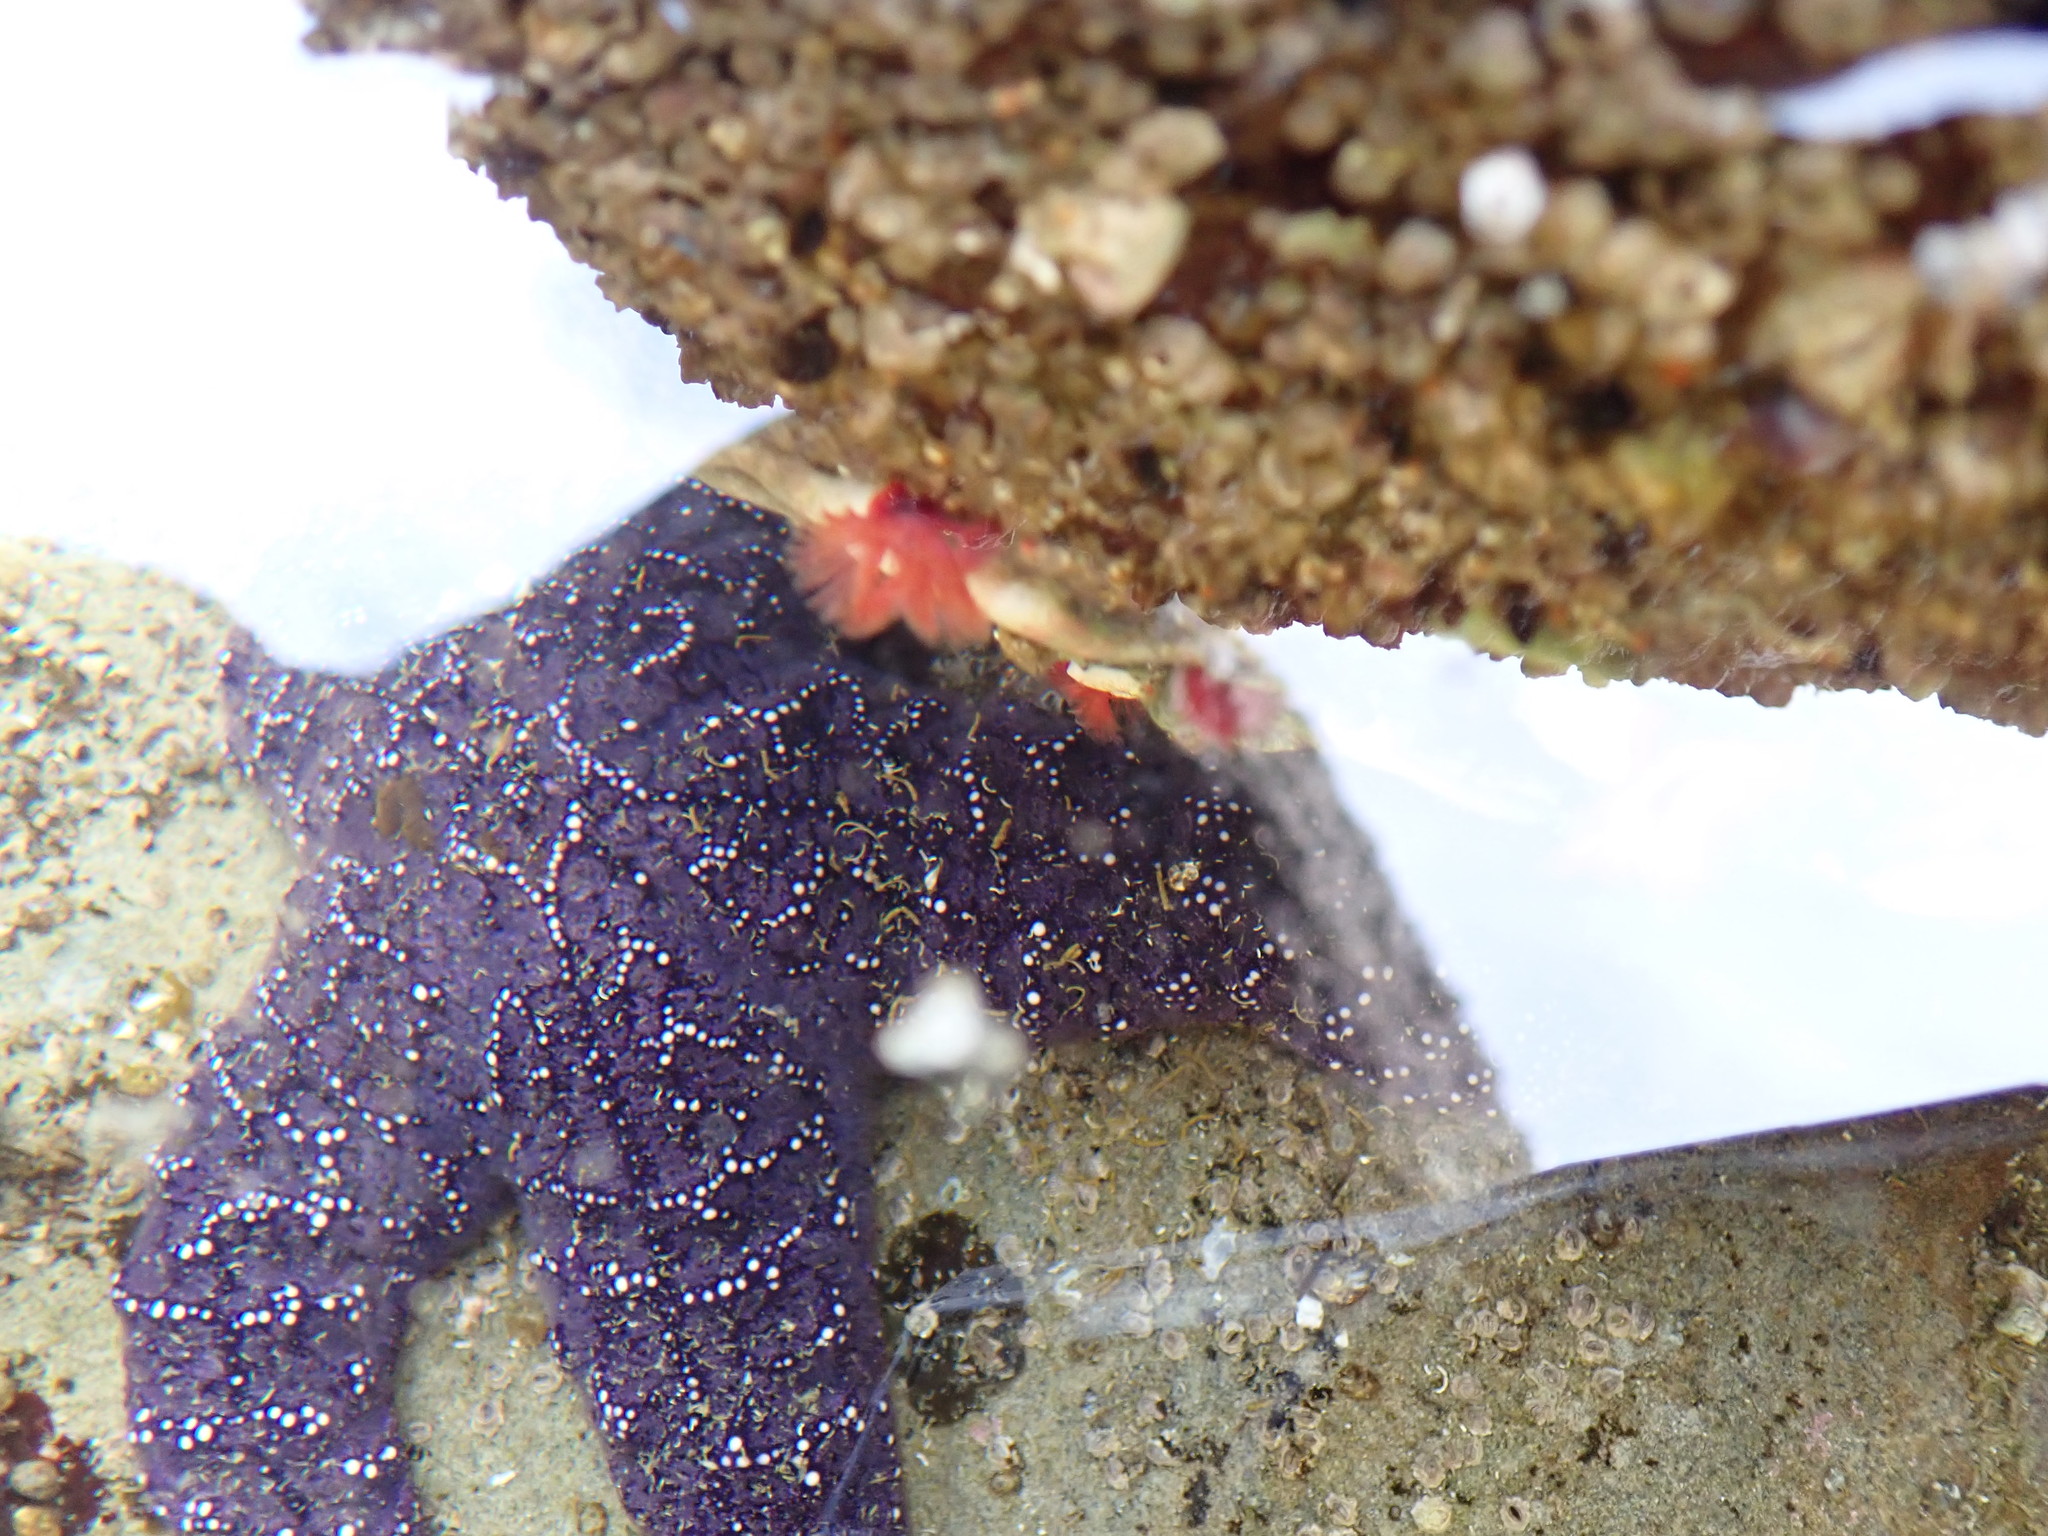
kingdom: Animalia
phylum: Annelida
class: Polychaeta
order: Sabellida
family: Serpulidae
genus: Serpula
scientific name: Serpula columbiana
